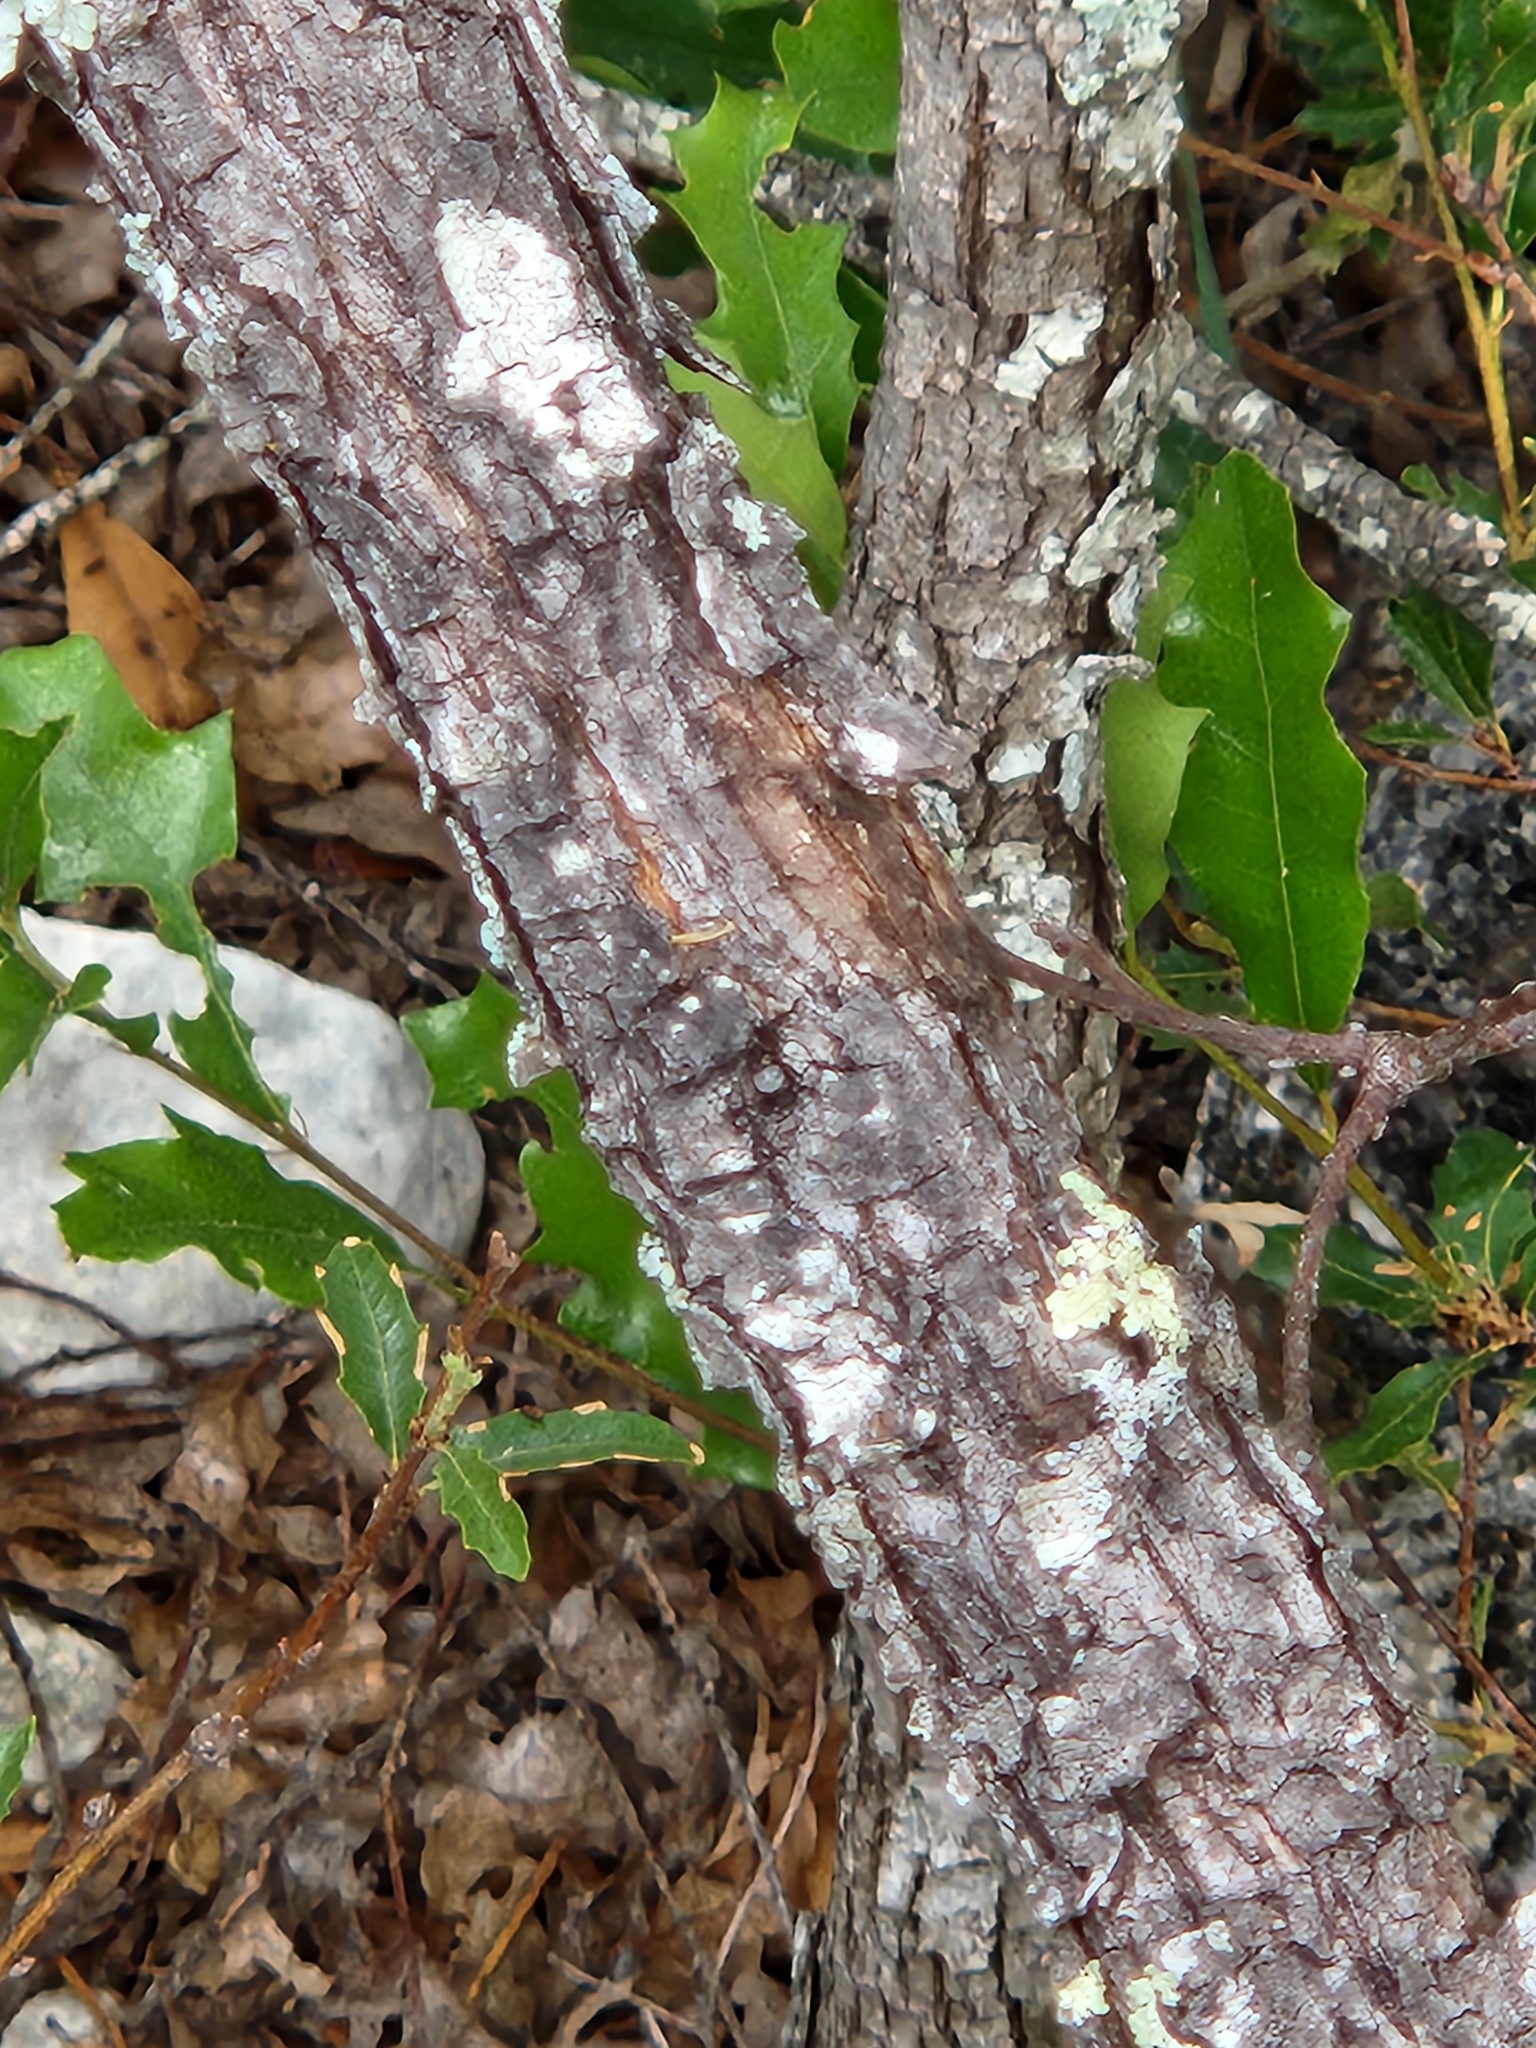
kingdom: Plantae
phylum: Tracheophyta
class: Magnoliopsida
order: Fagales
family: Fagaceae
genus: Quercus
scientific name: Quercus vaseyana
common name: Sandpaper oak
